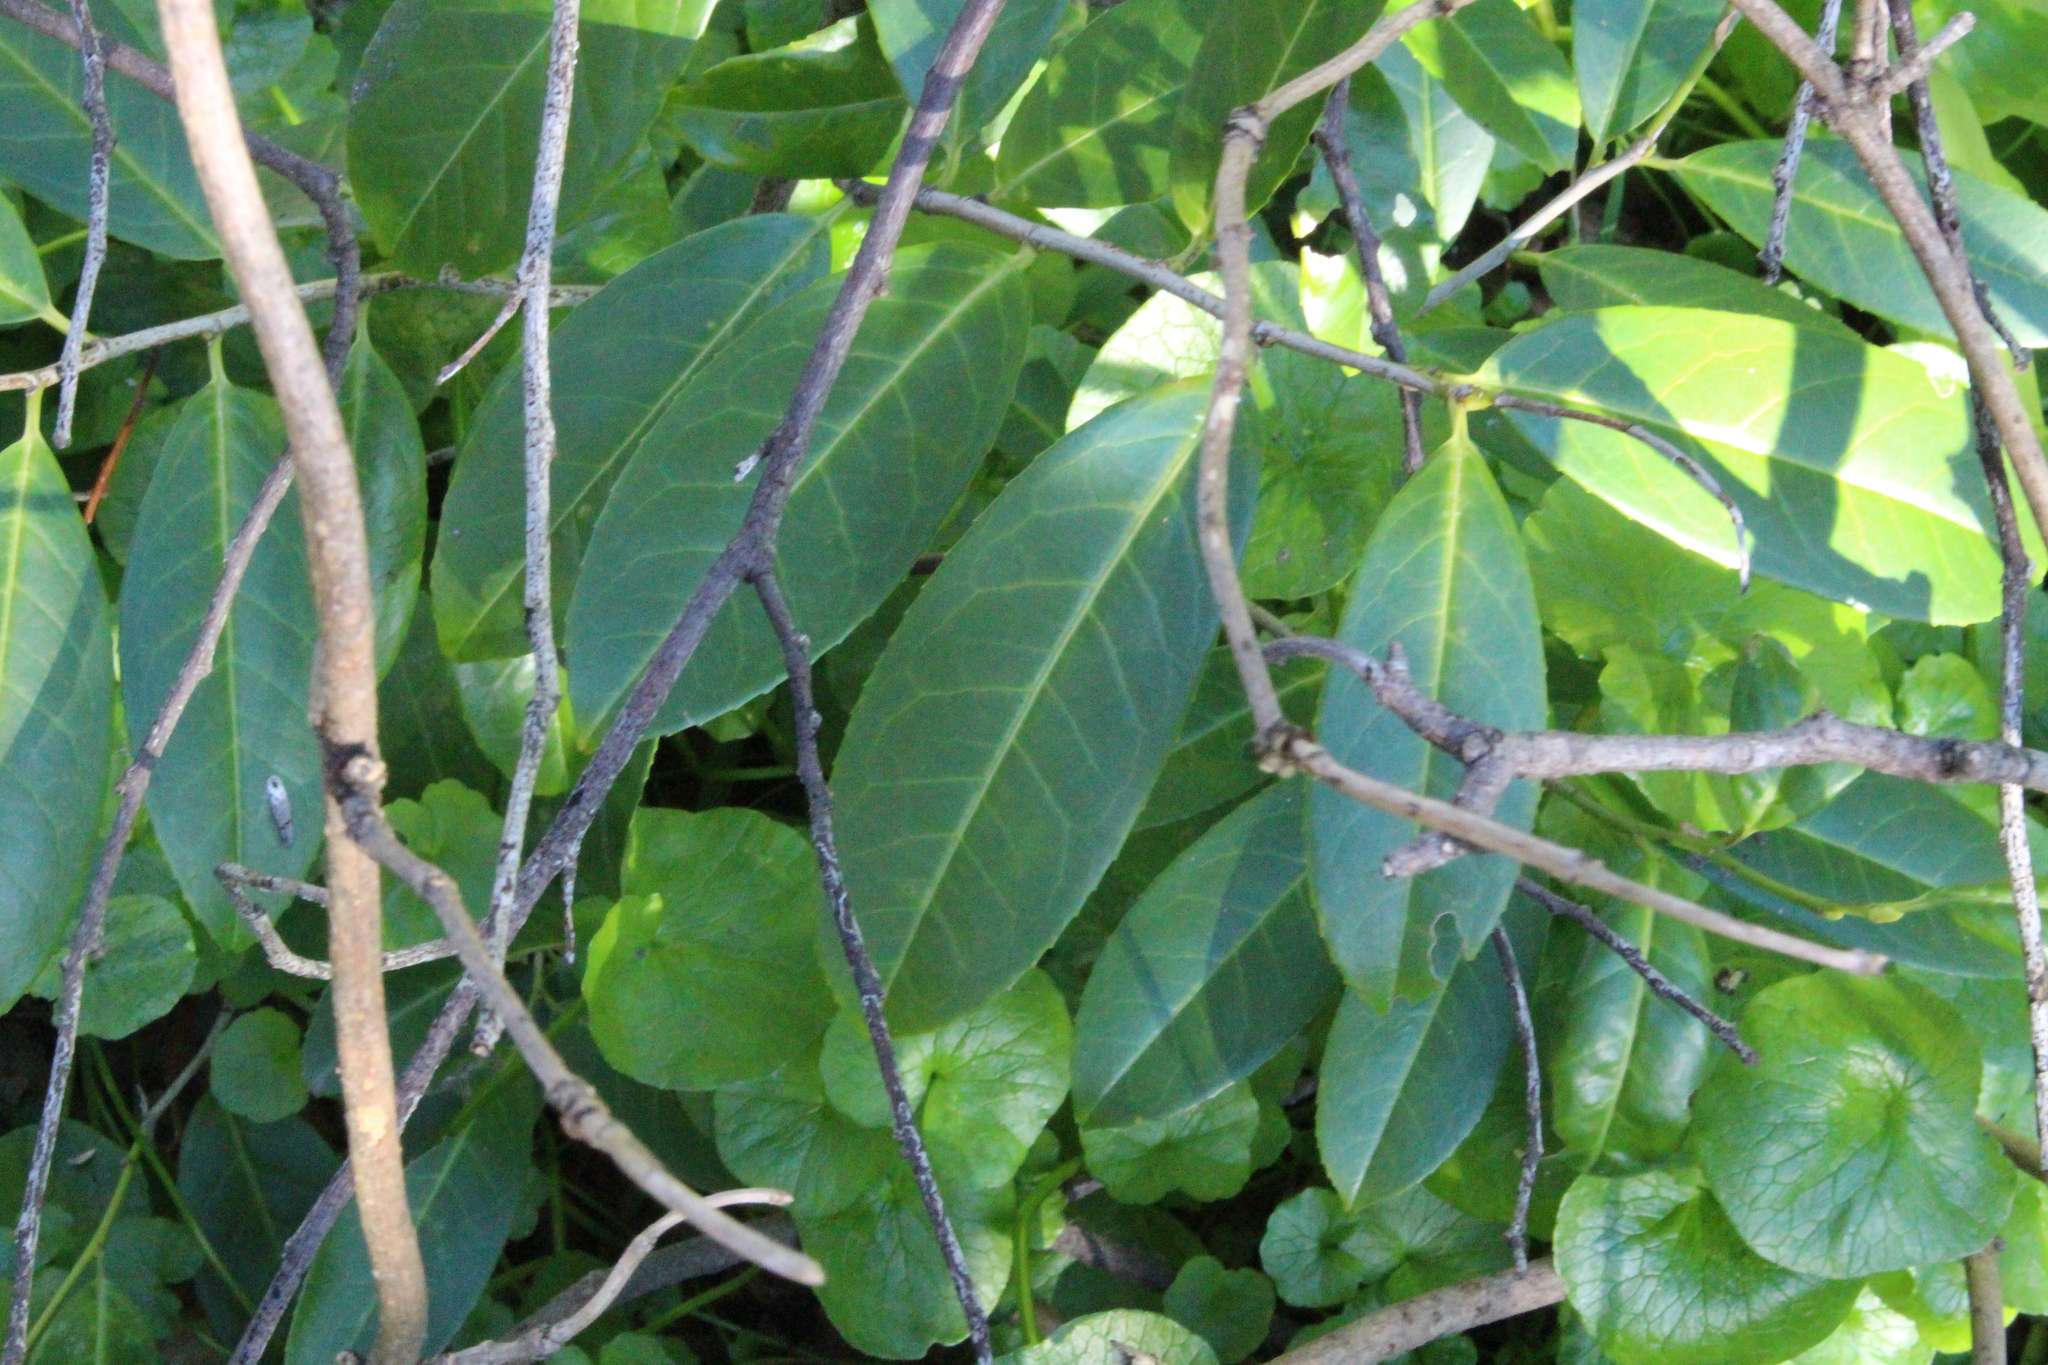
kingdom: Plantae
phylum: Tracheophyta
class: Magnoliopsida
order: Rosales
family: Rosaceae
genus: Prunus
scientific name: Prunus laurocerasus
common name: Cherry laurel
